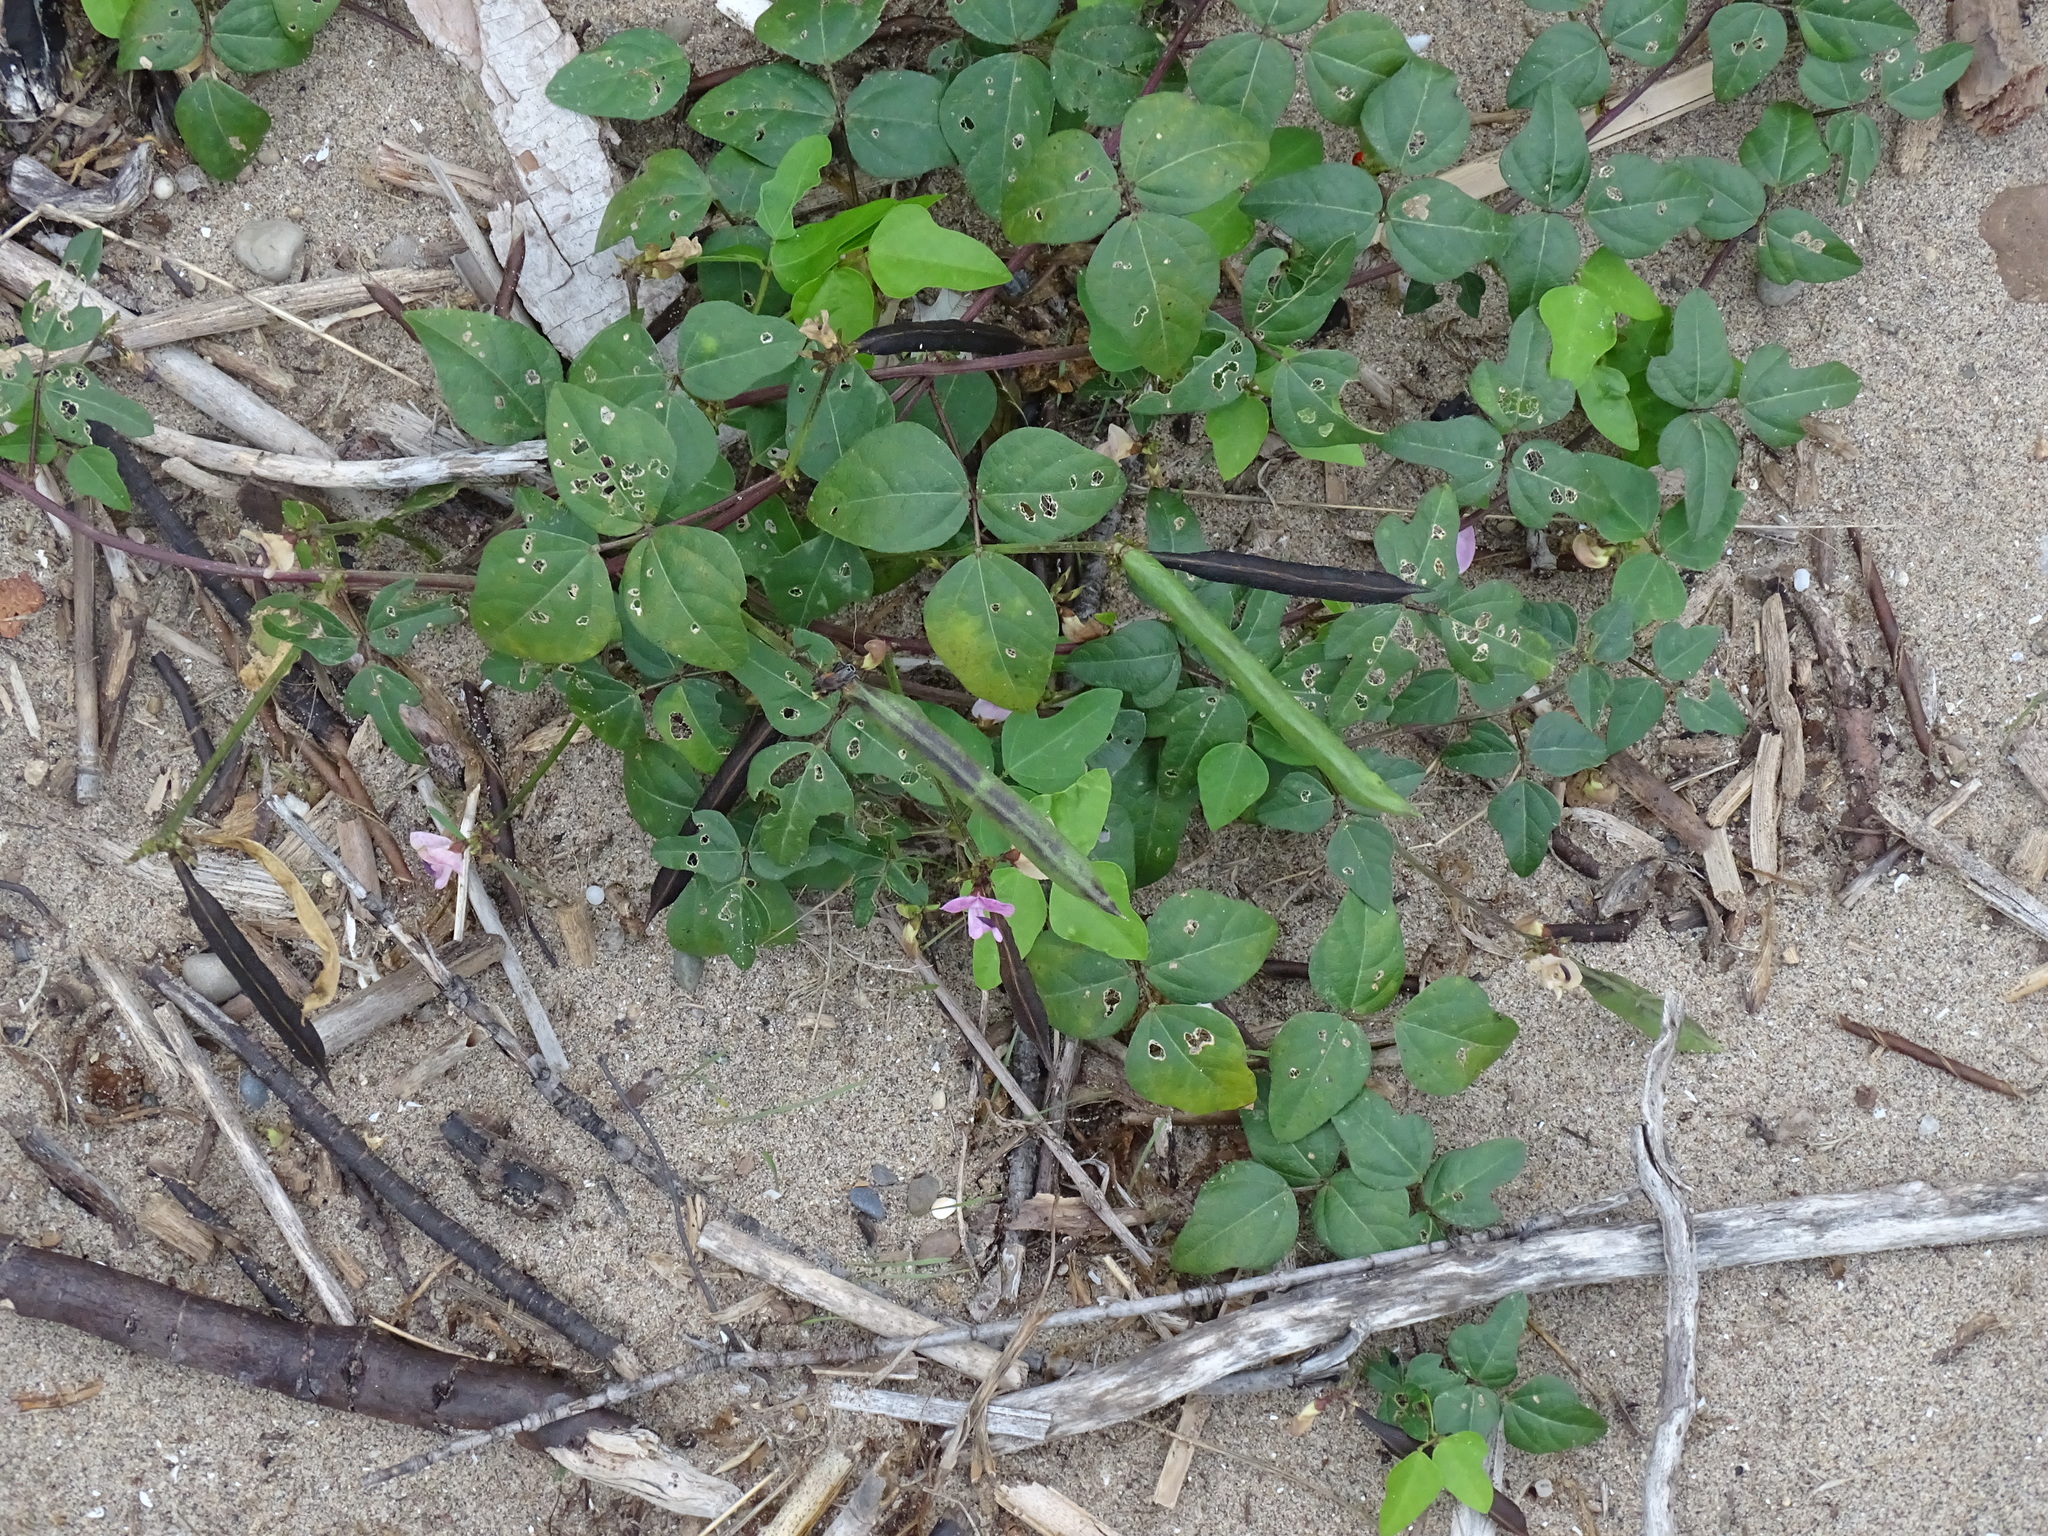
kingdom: Plantae
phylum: Tracheophyta
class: Magnoliopsida
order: Fabales
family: Fabaceae
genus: Strophostyles
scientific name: Strophostyles helvola
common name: Trailing wild bean
